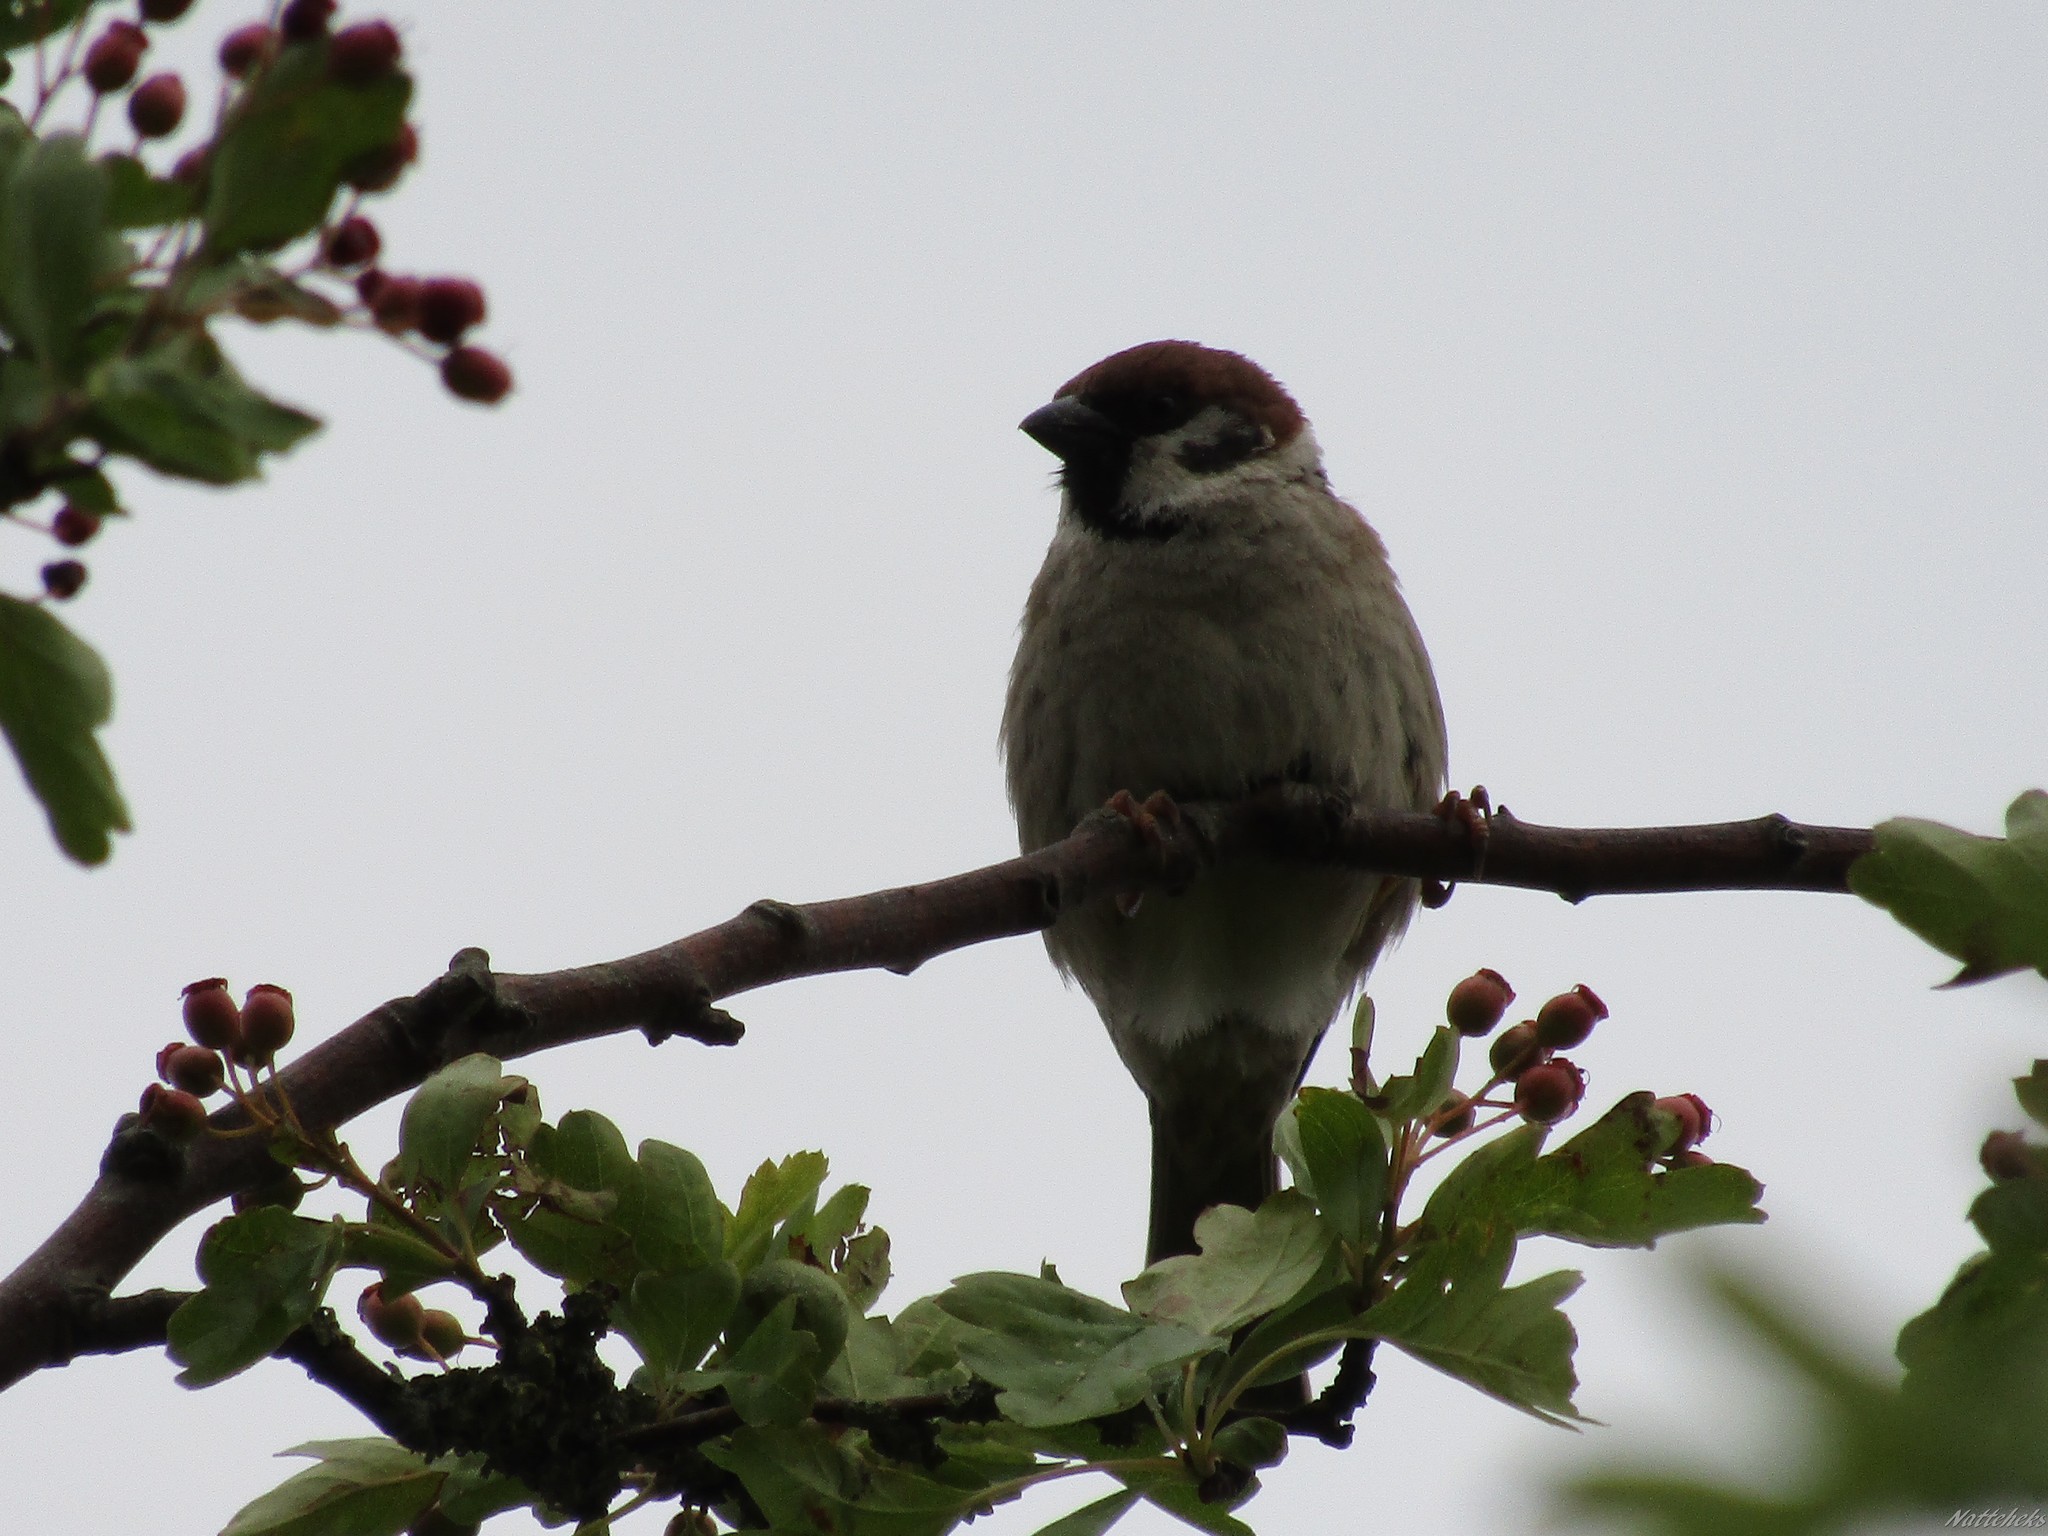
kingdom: Animalia
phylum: Chordata
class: Aves
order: Passeriformes
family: Passeridae
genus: Passer
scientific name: Passer montanus
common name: Eurasian tree sparrow
